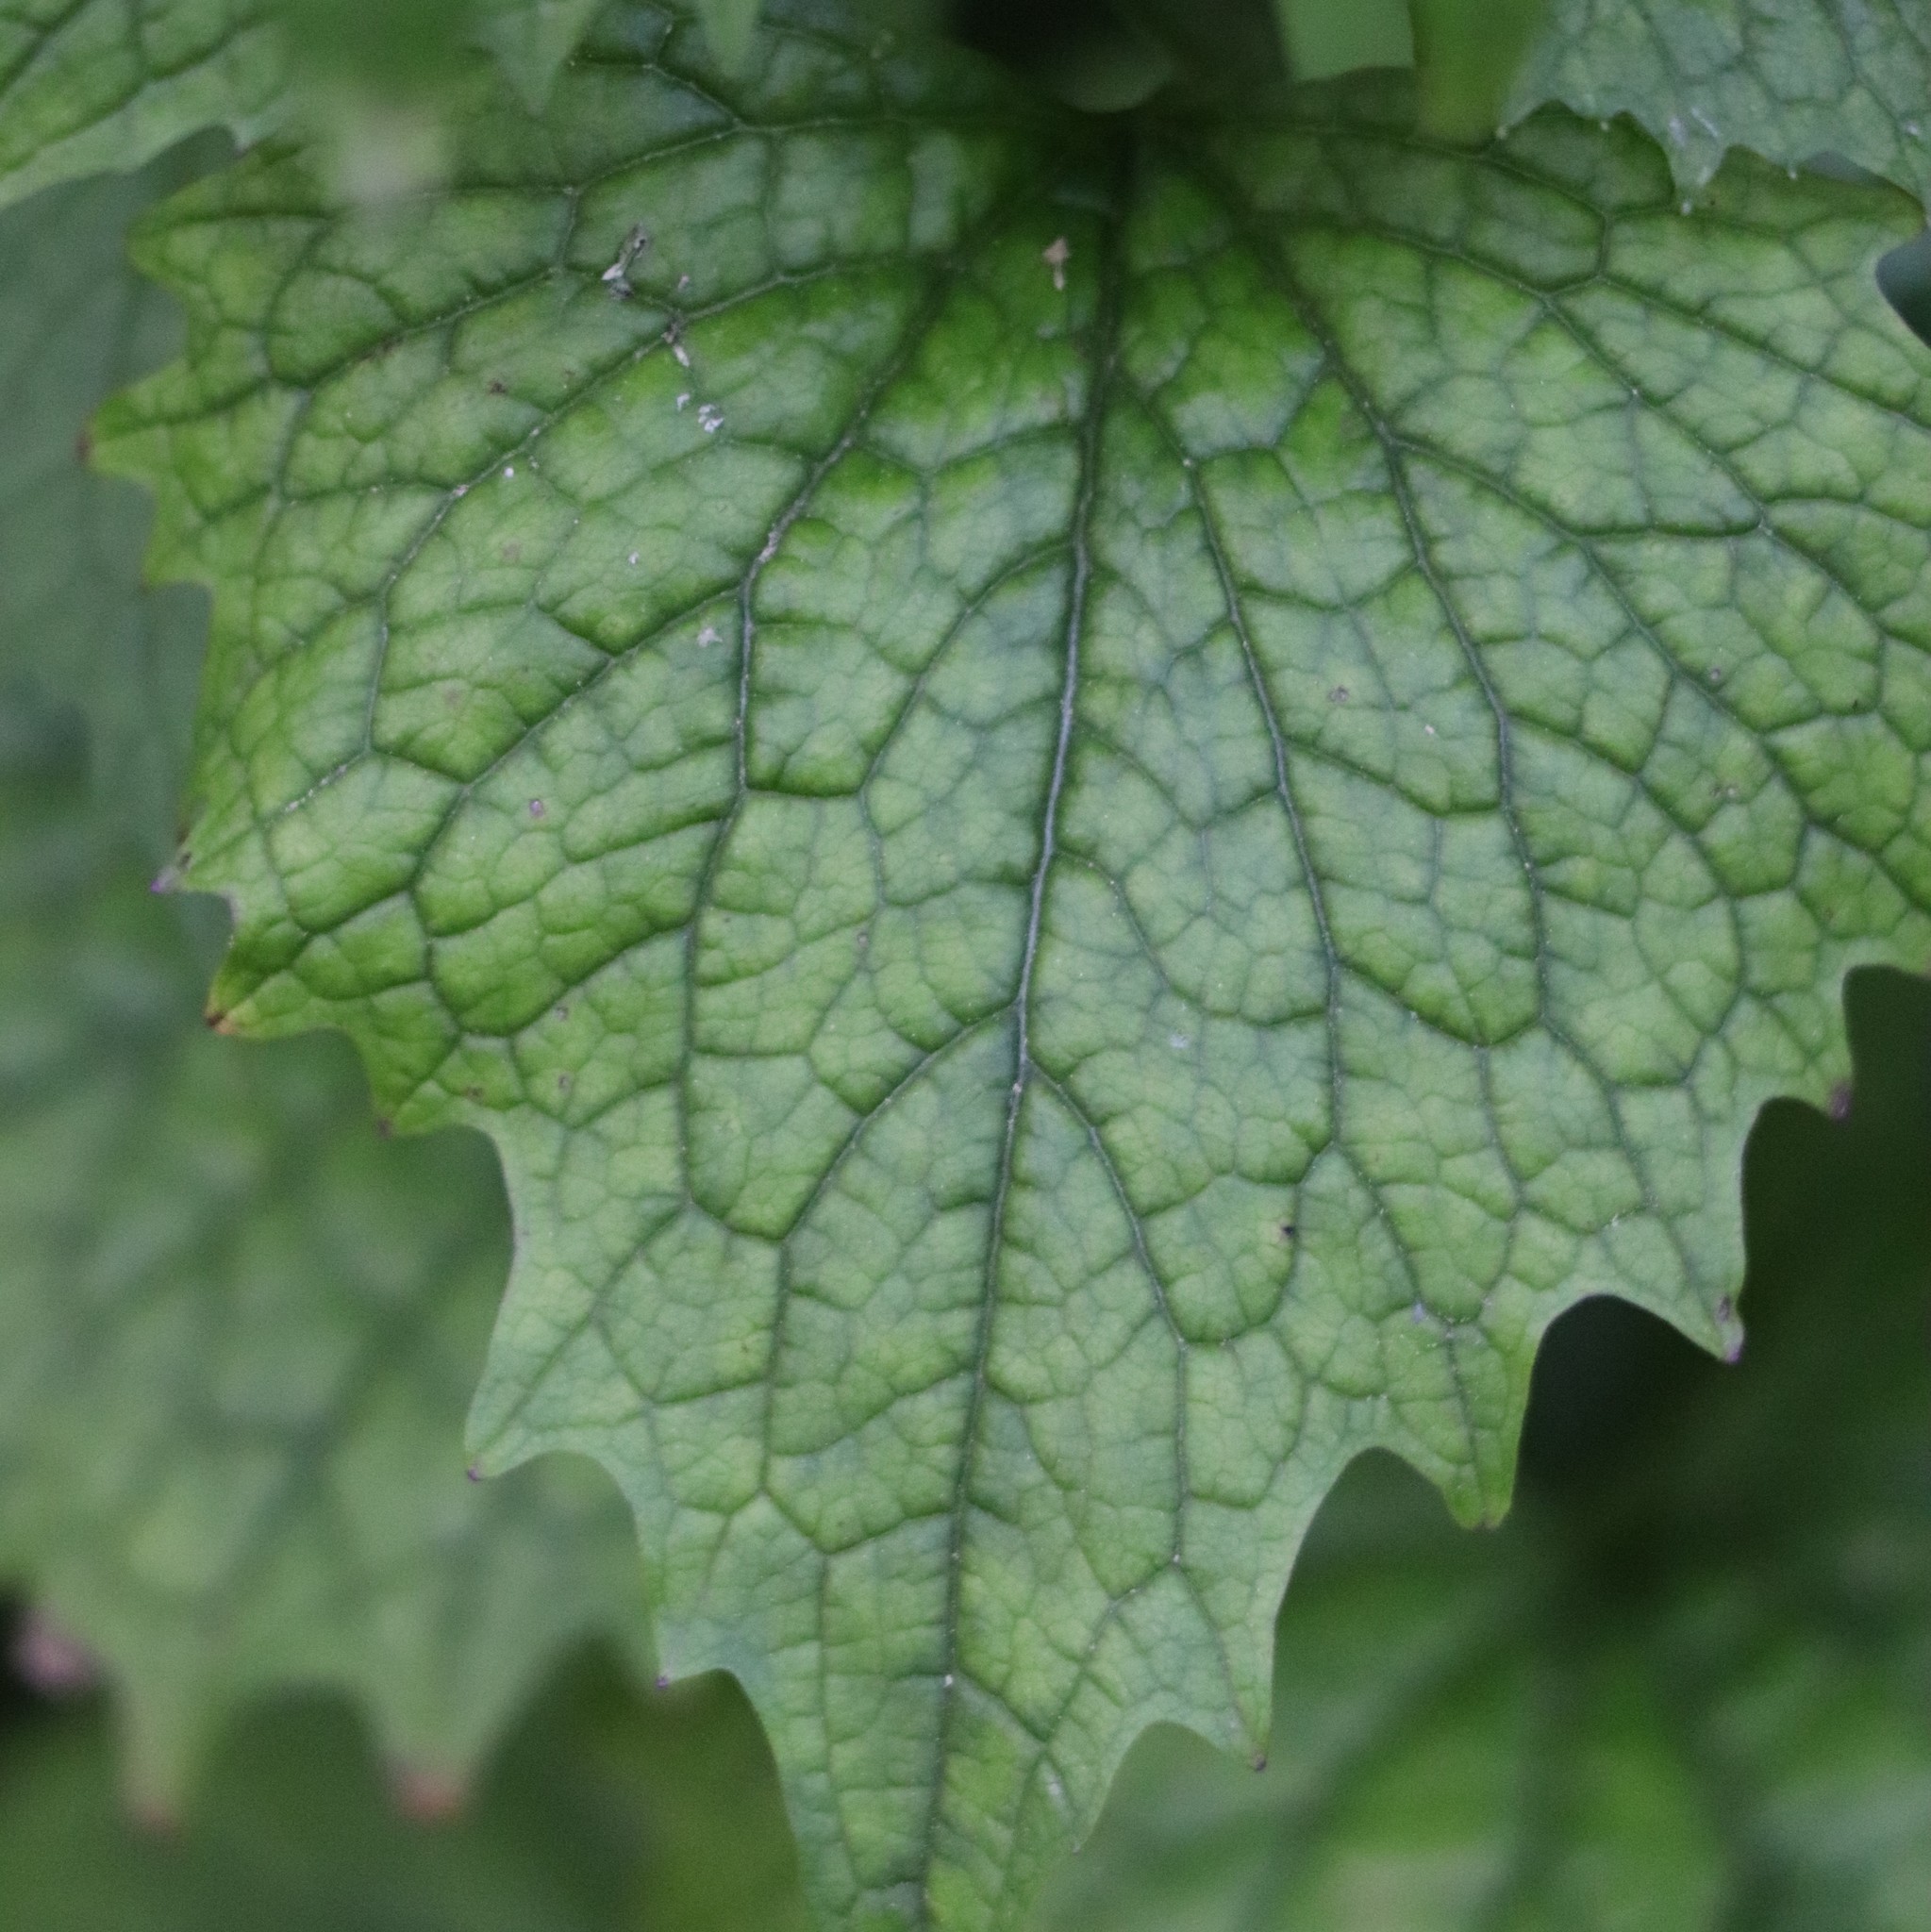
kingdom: Plantae
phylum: Tracheophyta
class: Magnoliopsida
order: Brassicales
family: Brassicaceae
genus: Alliaria
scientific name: Alliaria petiolata
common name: Garlic mustard
